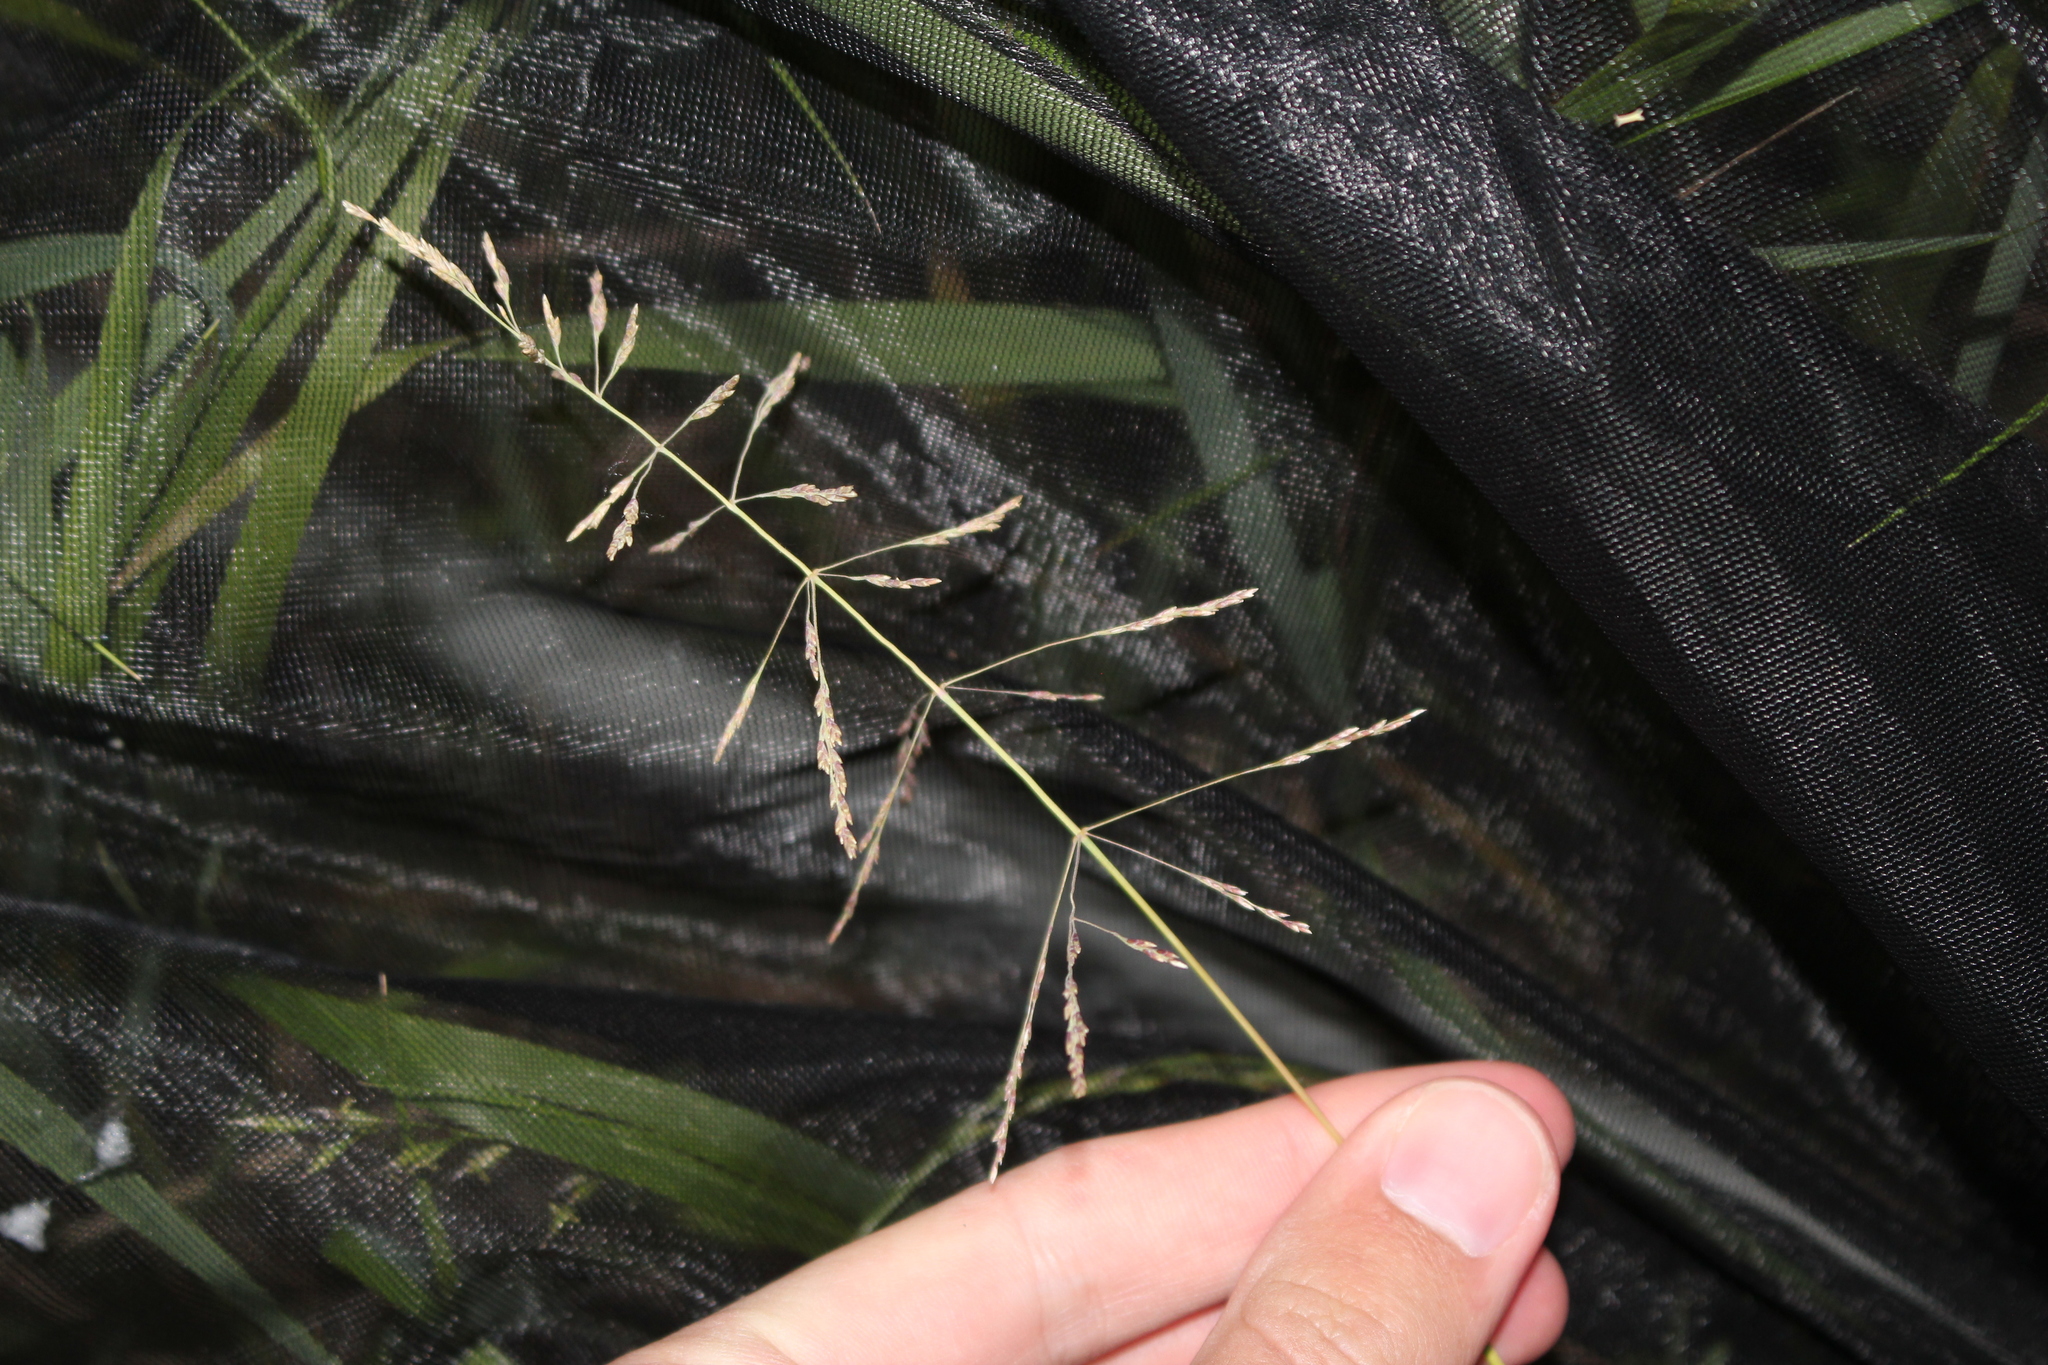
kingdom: Plantae
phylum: Tracheophyta
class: Liliopsida
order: Poales
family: Poaceae
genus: Puccinellia
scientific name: Puccinellia distans
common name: Weeping alkaligrass
